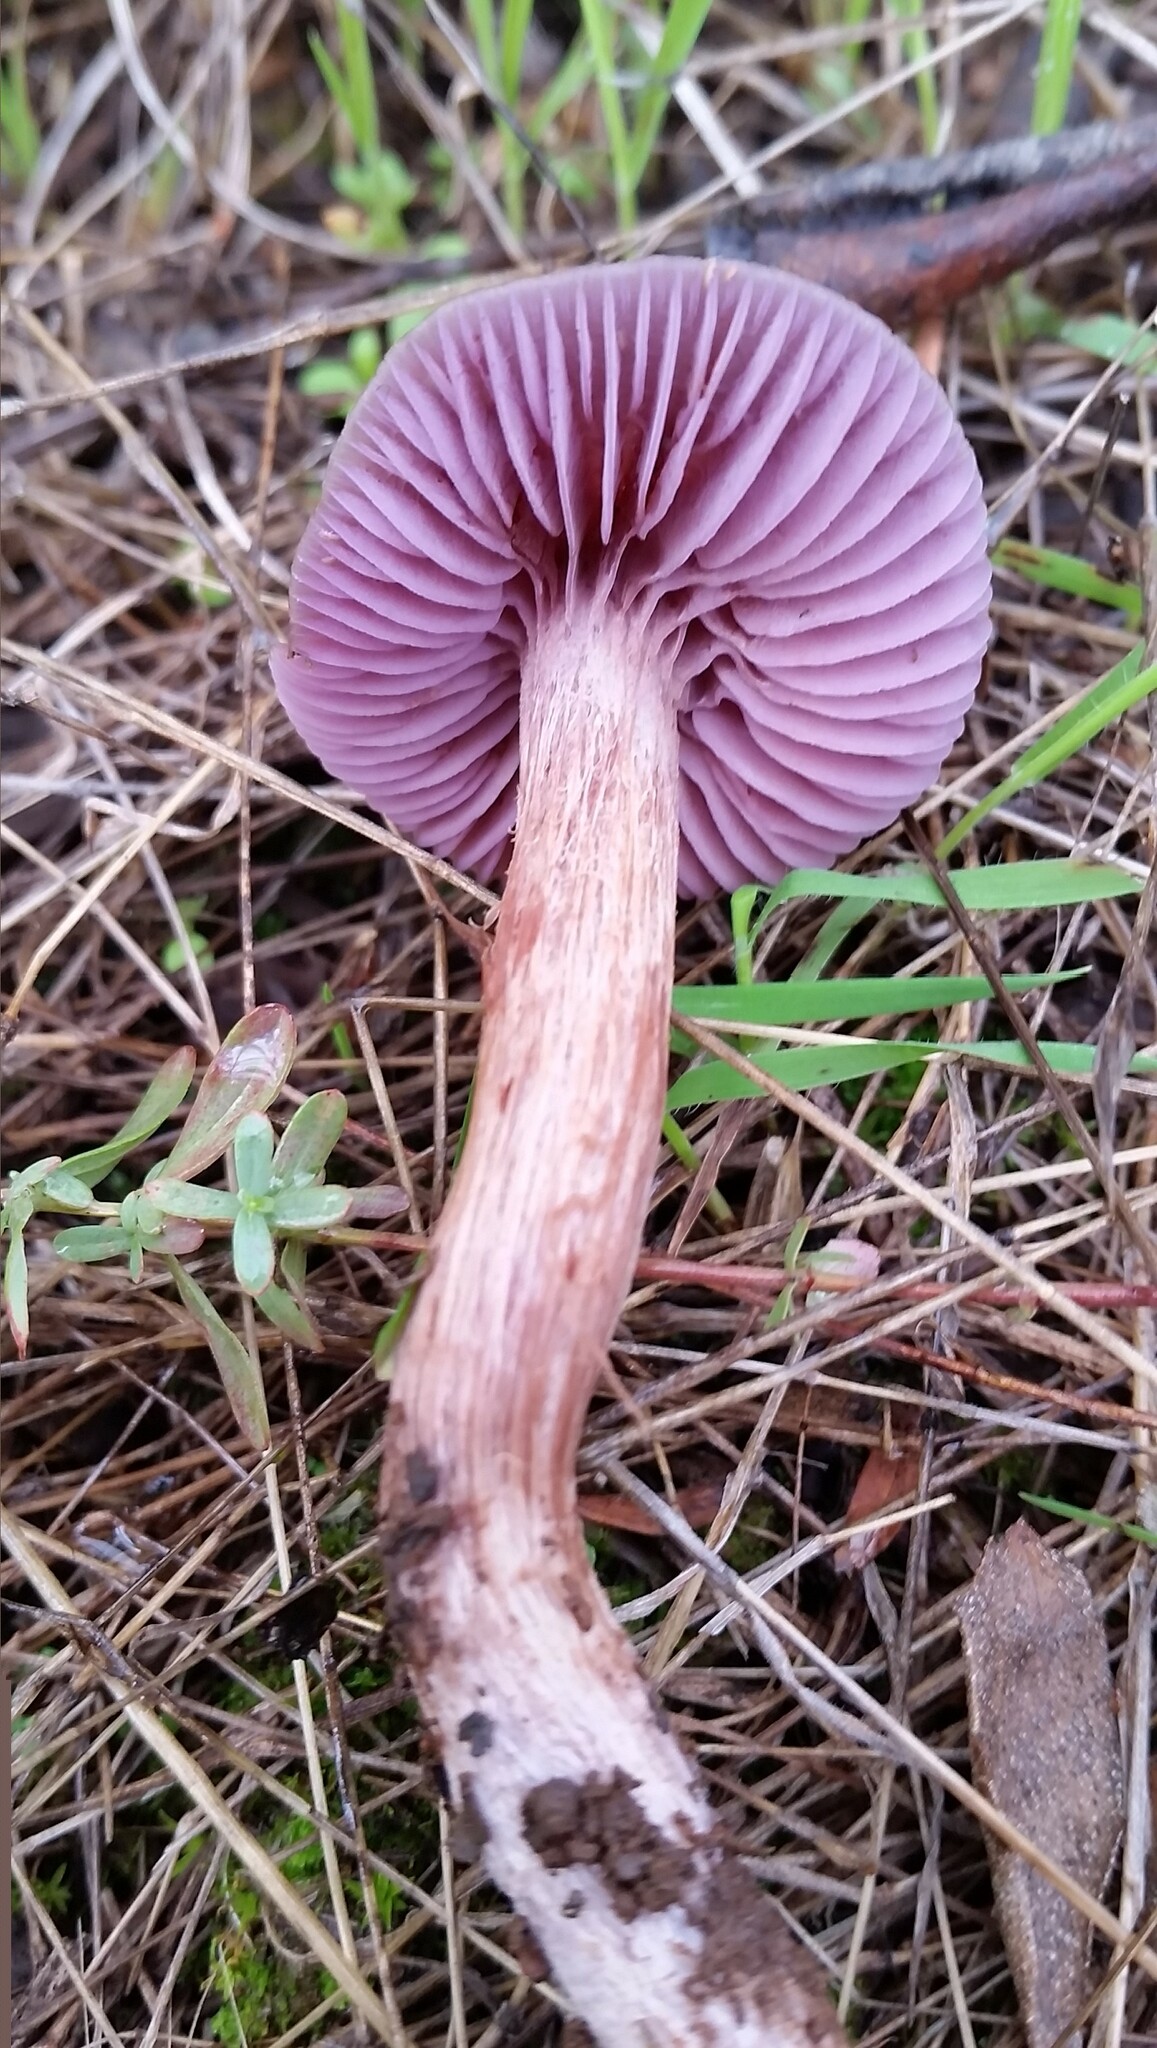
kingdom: Fungi
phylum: Basidiomycota
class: Agaricomycetes
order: Agaricales
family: Hydnangiaceae
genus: Laccaria
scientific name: Laccaria amethysteo-occidentalis
